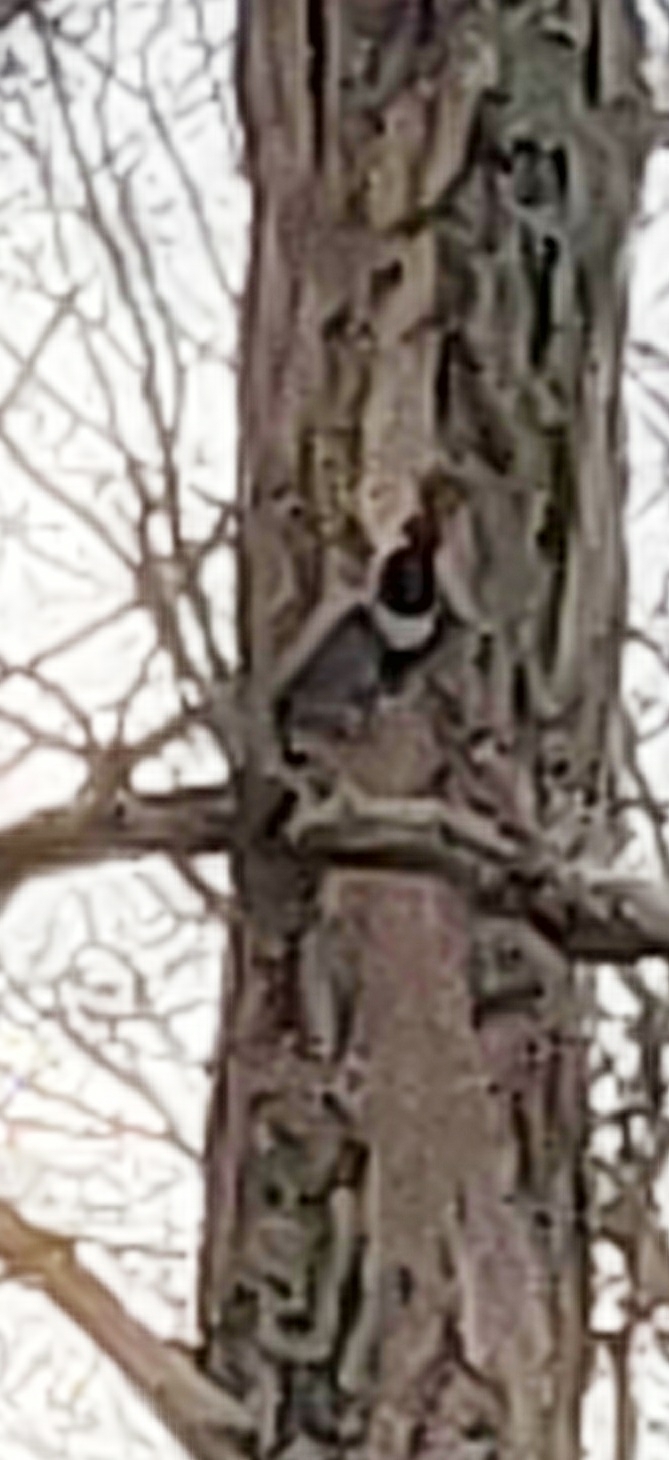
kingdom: Animalia
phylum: Chordata
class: Aves
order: Piciformes
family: Picidae
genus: Melanerpes
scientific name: Melanerpes erythrocephalus
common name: Red-headed woodpecker
